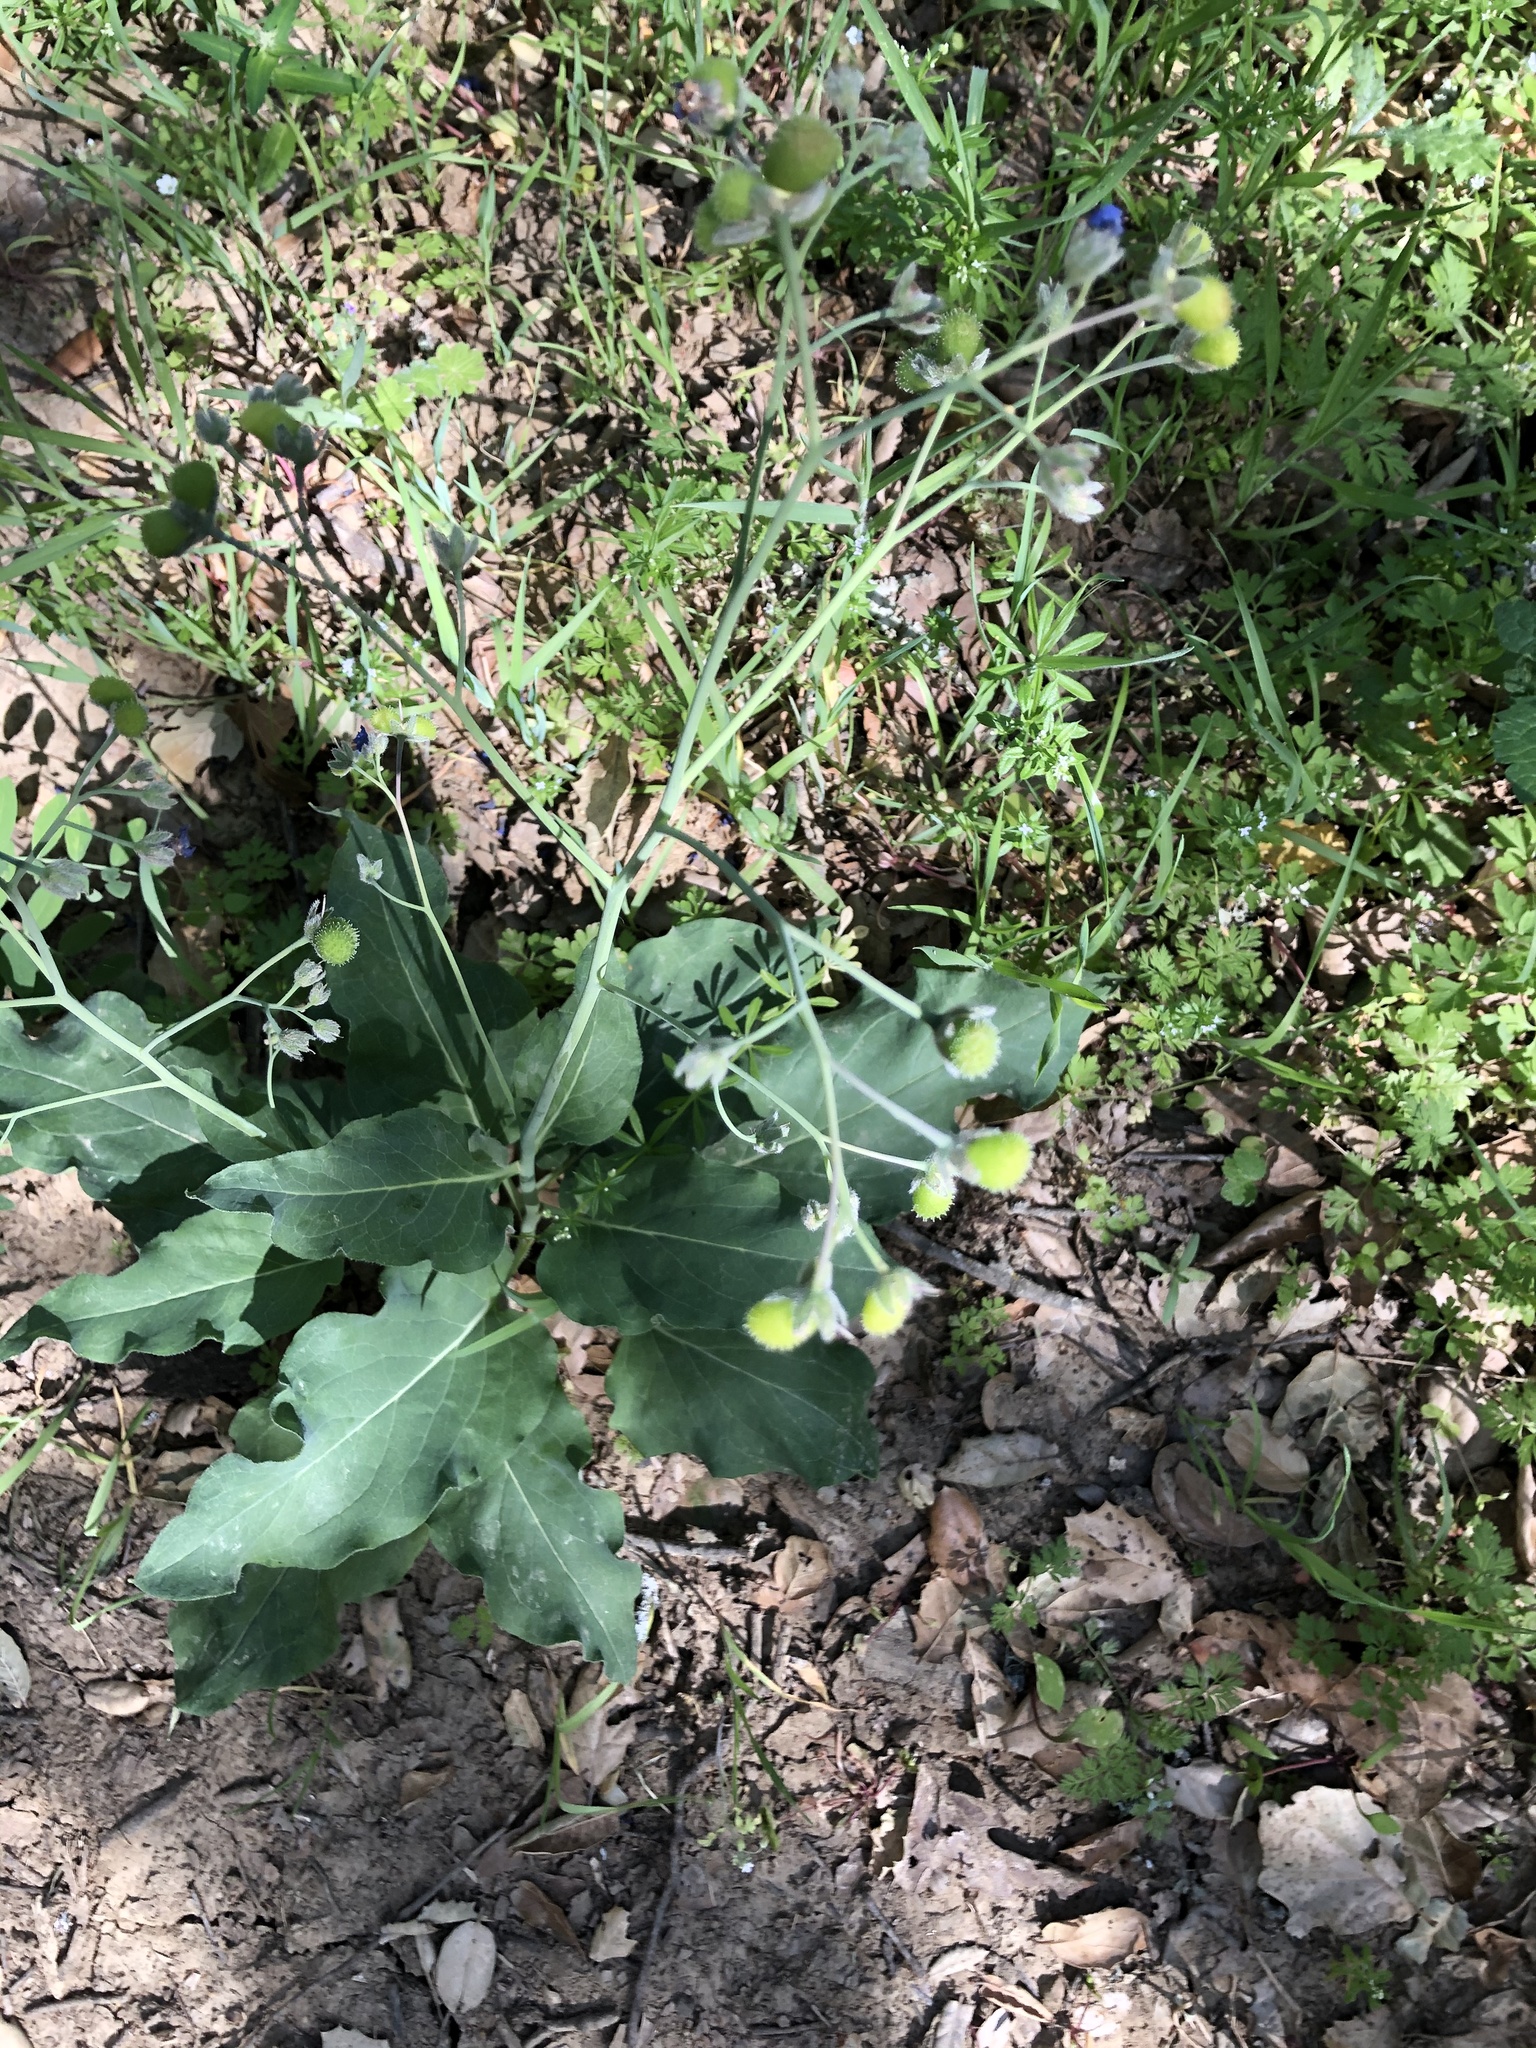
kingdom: Plantae
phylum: Tracheophyta
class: Magnoliopsida
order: Boraginales
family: Boraginaceae
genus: Adelinia
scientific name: Adelinia grande
